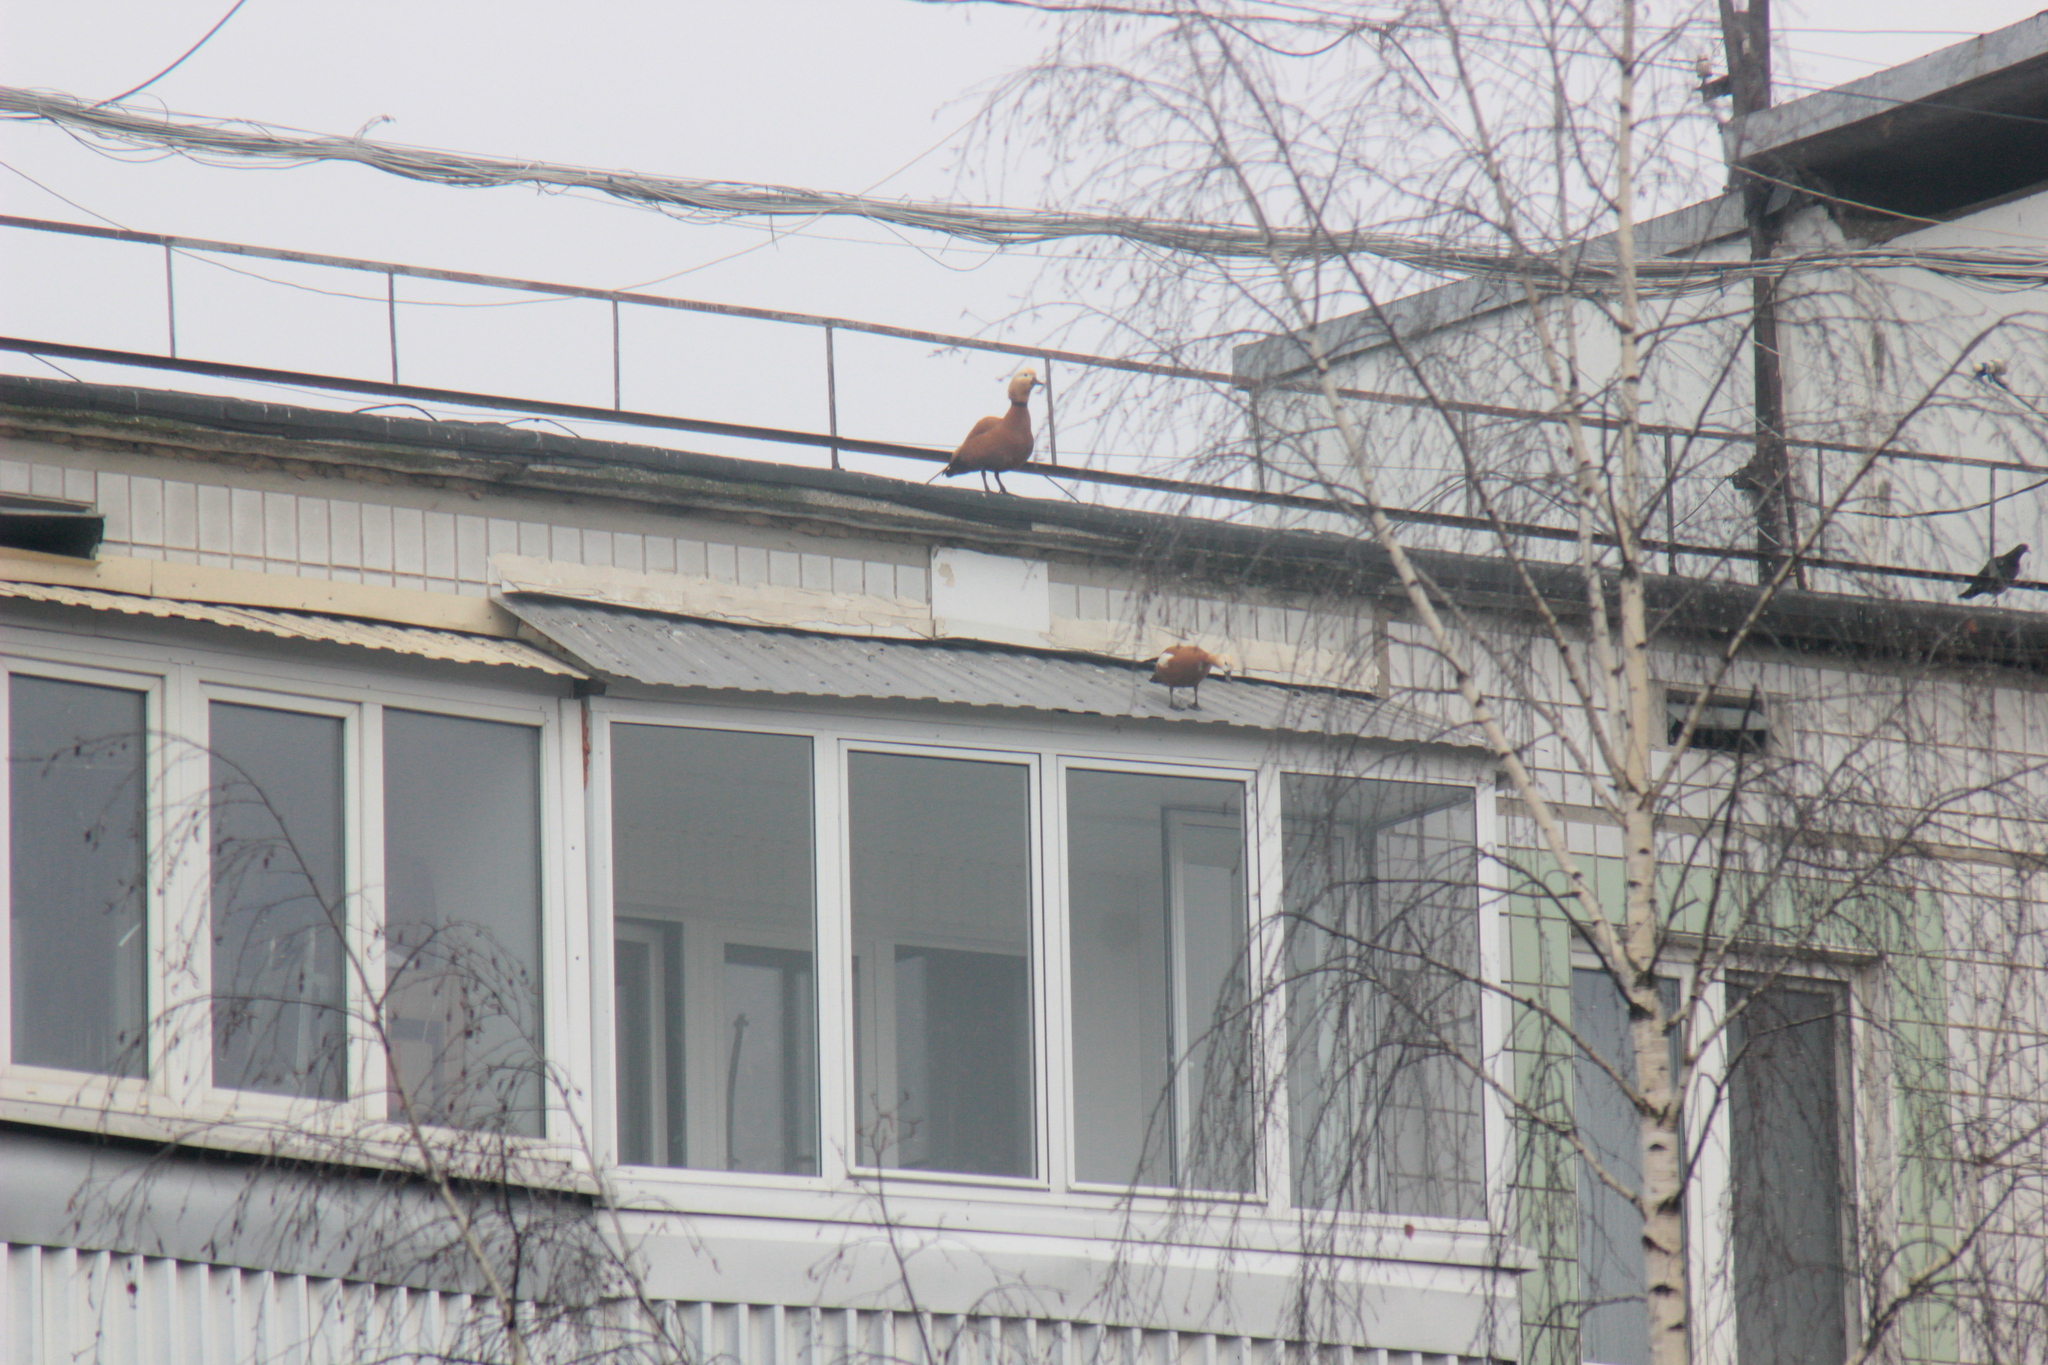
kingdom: Animalia
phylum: Chordata
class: Aves
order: Anseriformes
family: Anatidae
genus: Tadorna
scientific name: Tadorna ferruginea
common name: Ruddy shelduck
